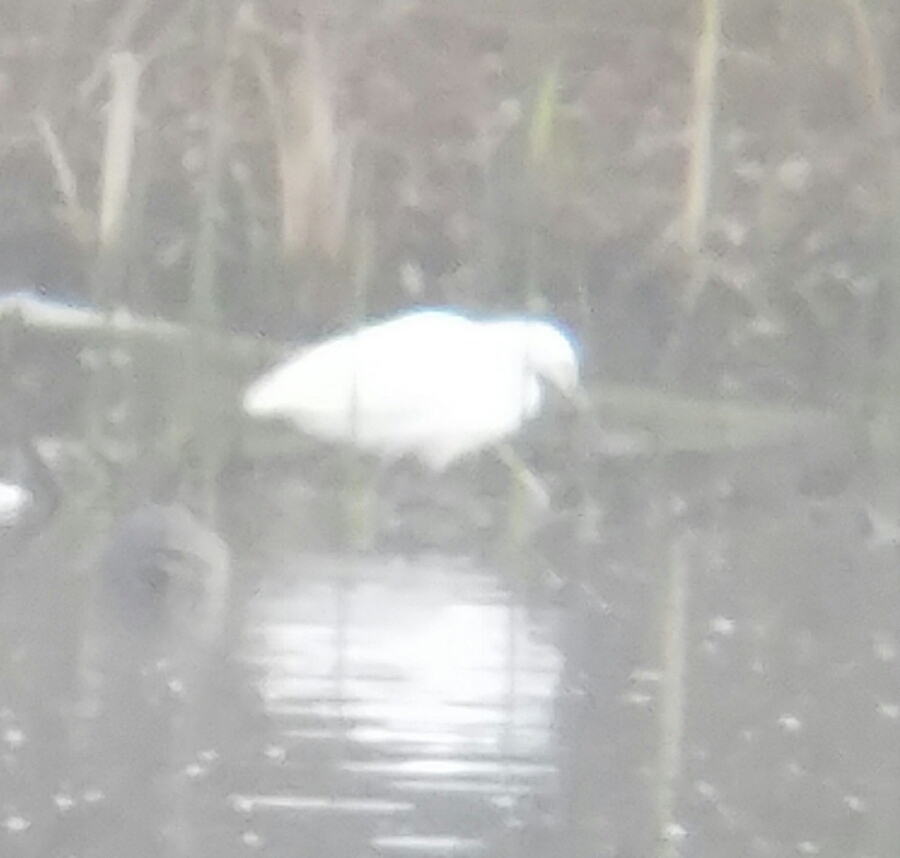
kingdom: Animalia
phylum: Chordata
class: Aves
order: Pelecaniformes
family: Ardeidae
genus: Egretta
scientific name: Egretta thula
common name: Snowy egret
